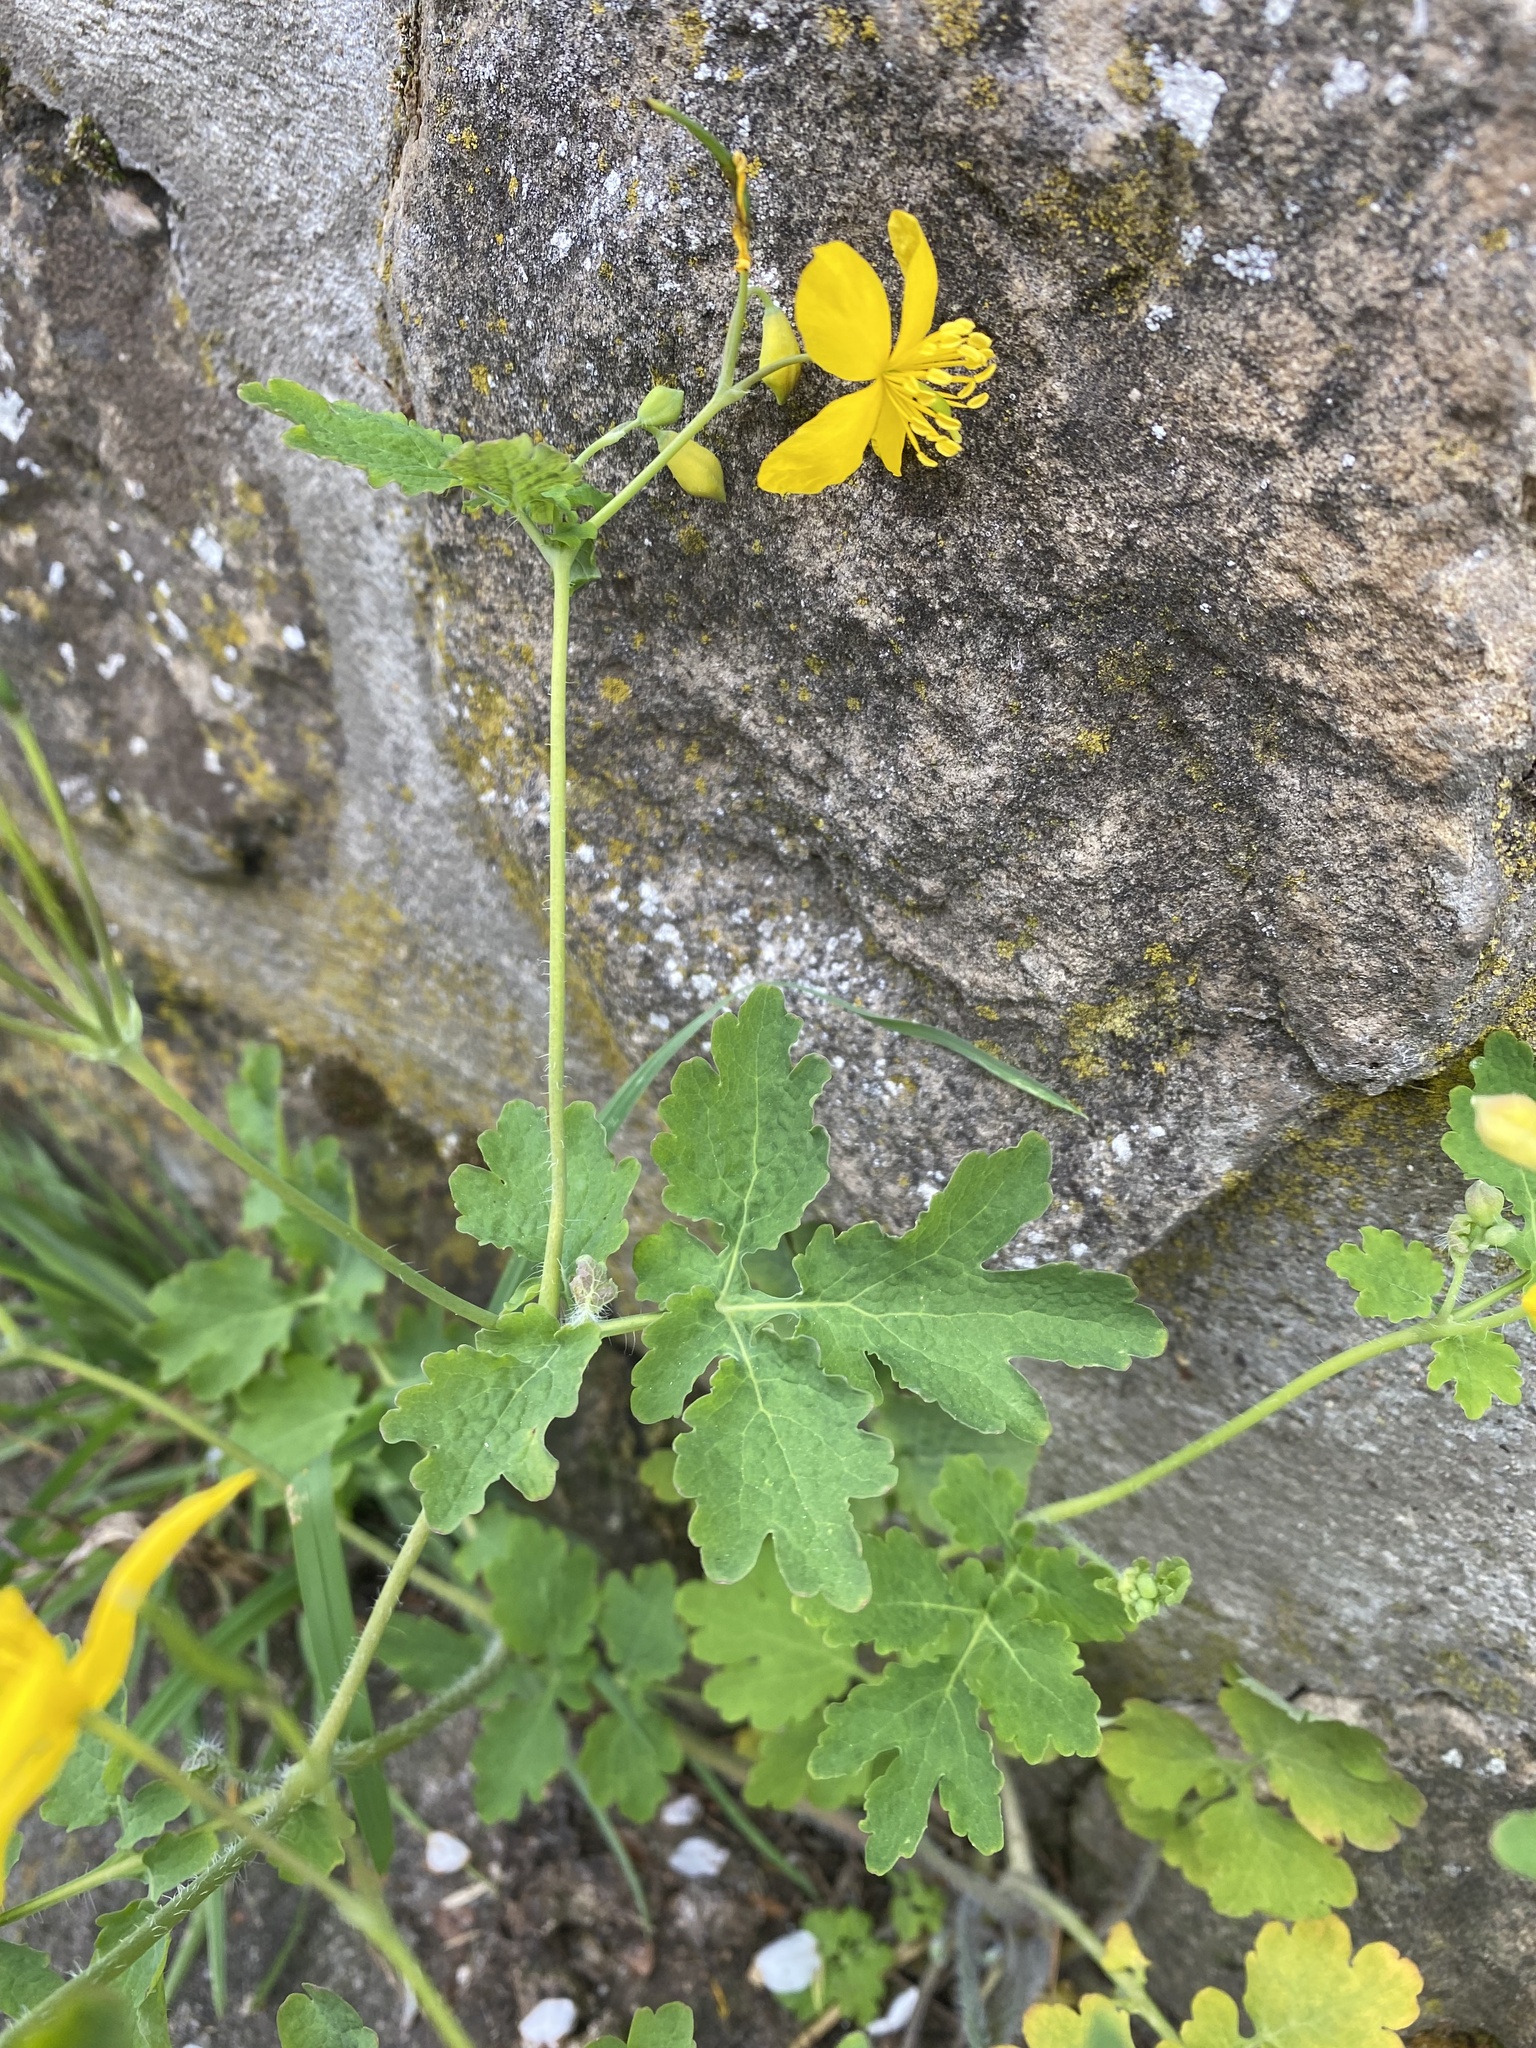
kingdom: Plantae
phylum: Tracheophyta
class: Magnoliopsida
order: Ranunculales
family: Papaveraceae
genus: Chelidonium
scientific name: Chelidonium majus
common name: Greater celandine
